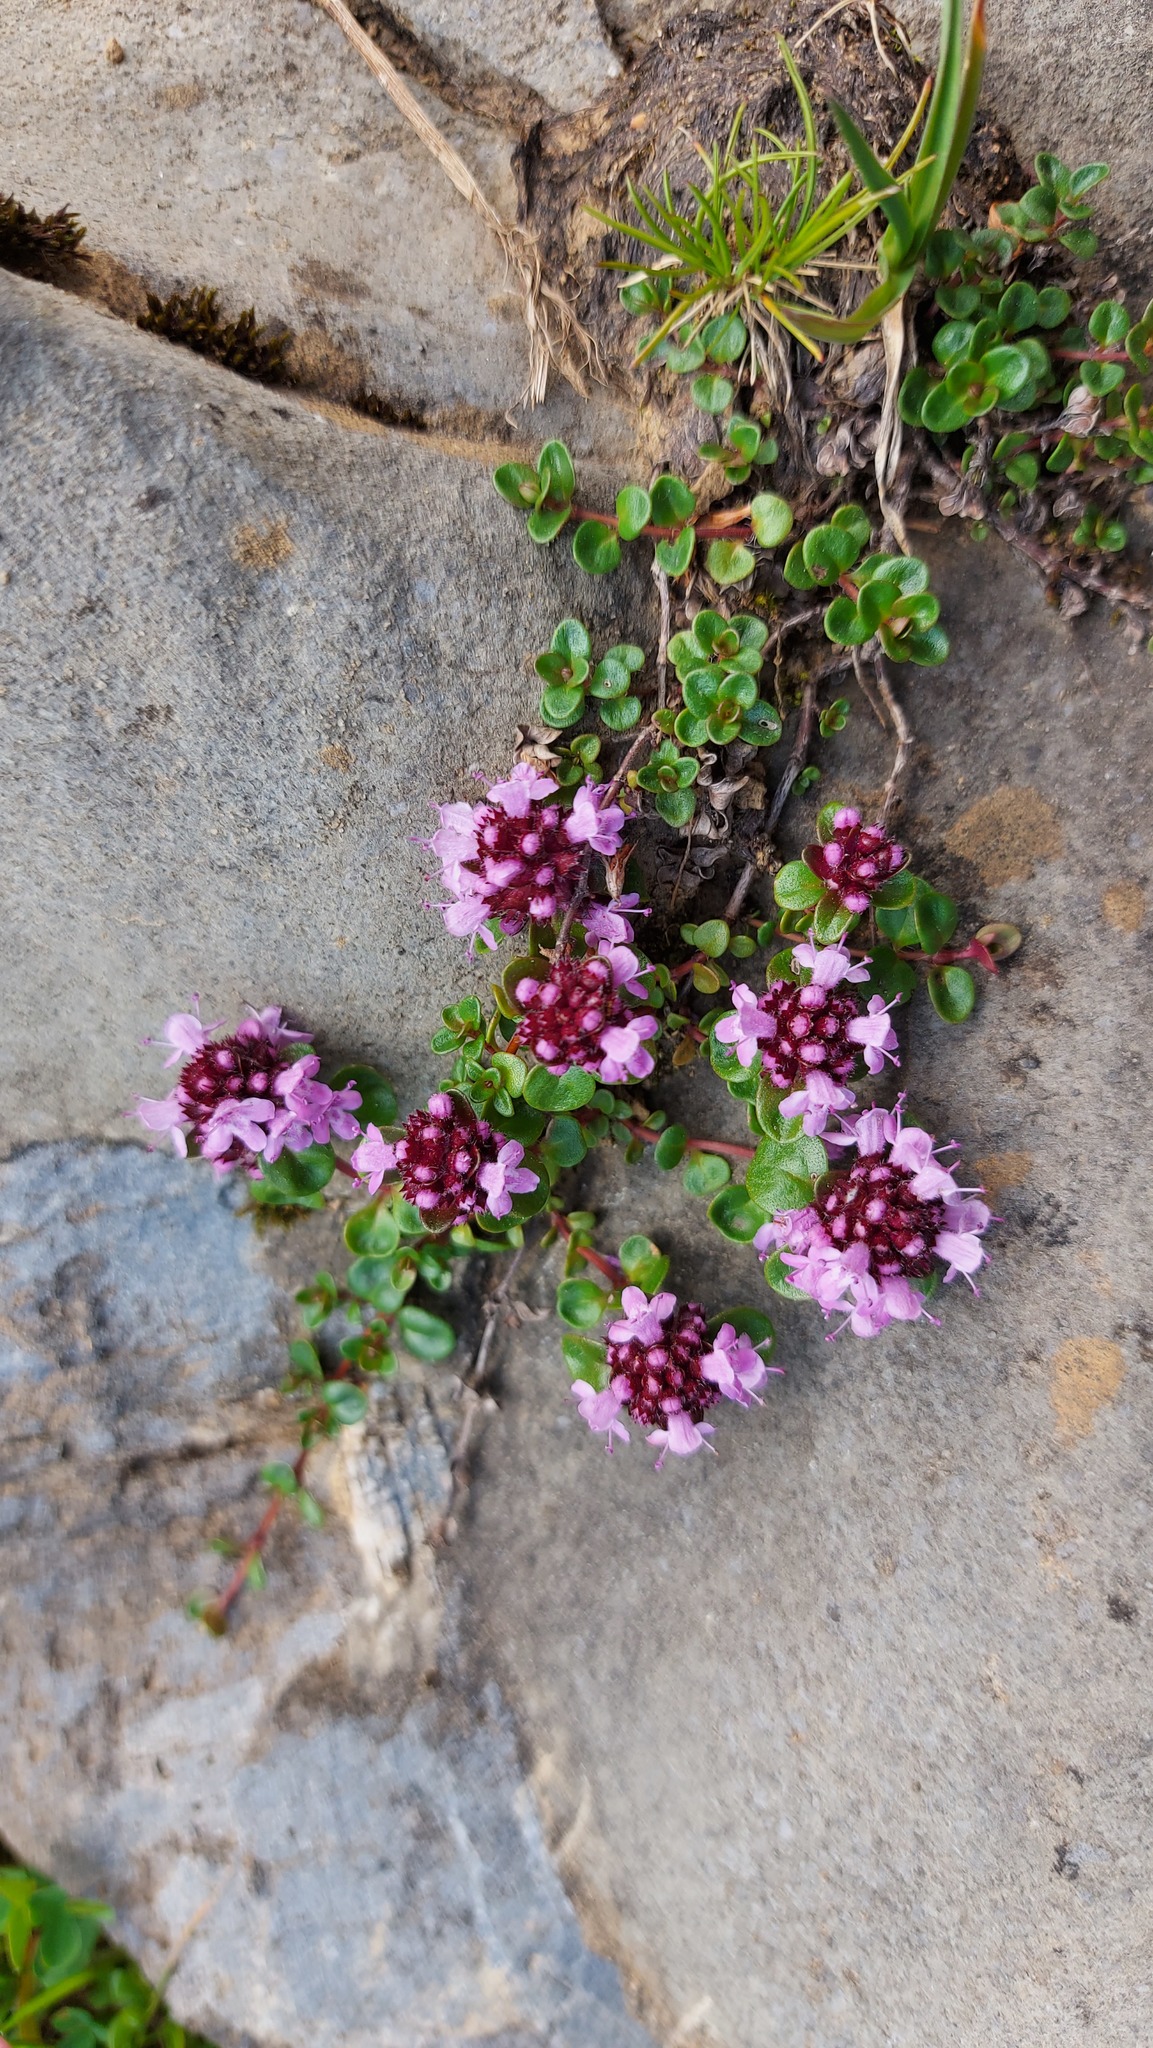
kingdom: Plantae
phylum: Tracheophyta
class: Magnoliopsida
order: Lamiales
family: Lamiaceae
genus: Thymus
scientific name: Thymus praecox
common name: Wild thyme
